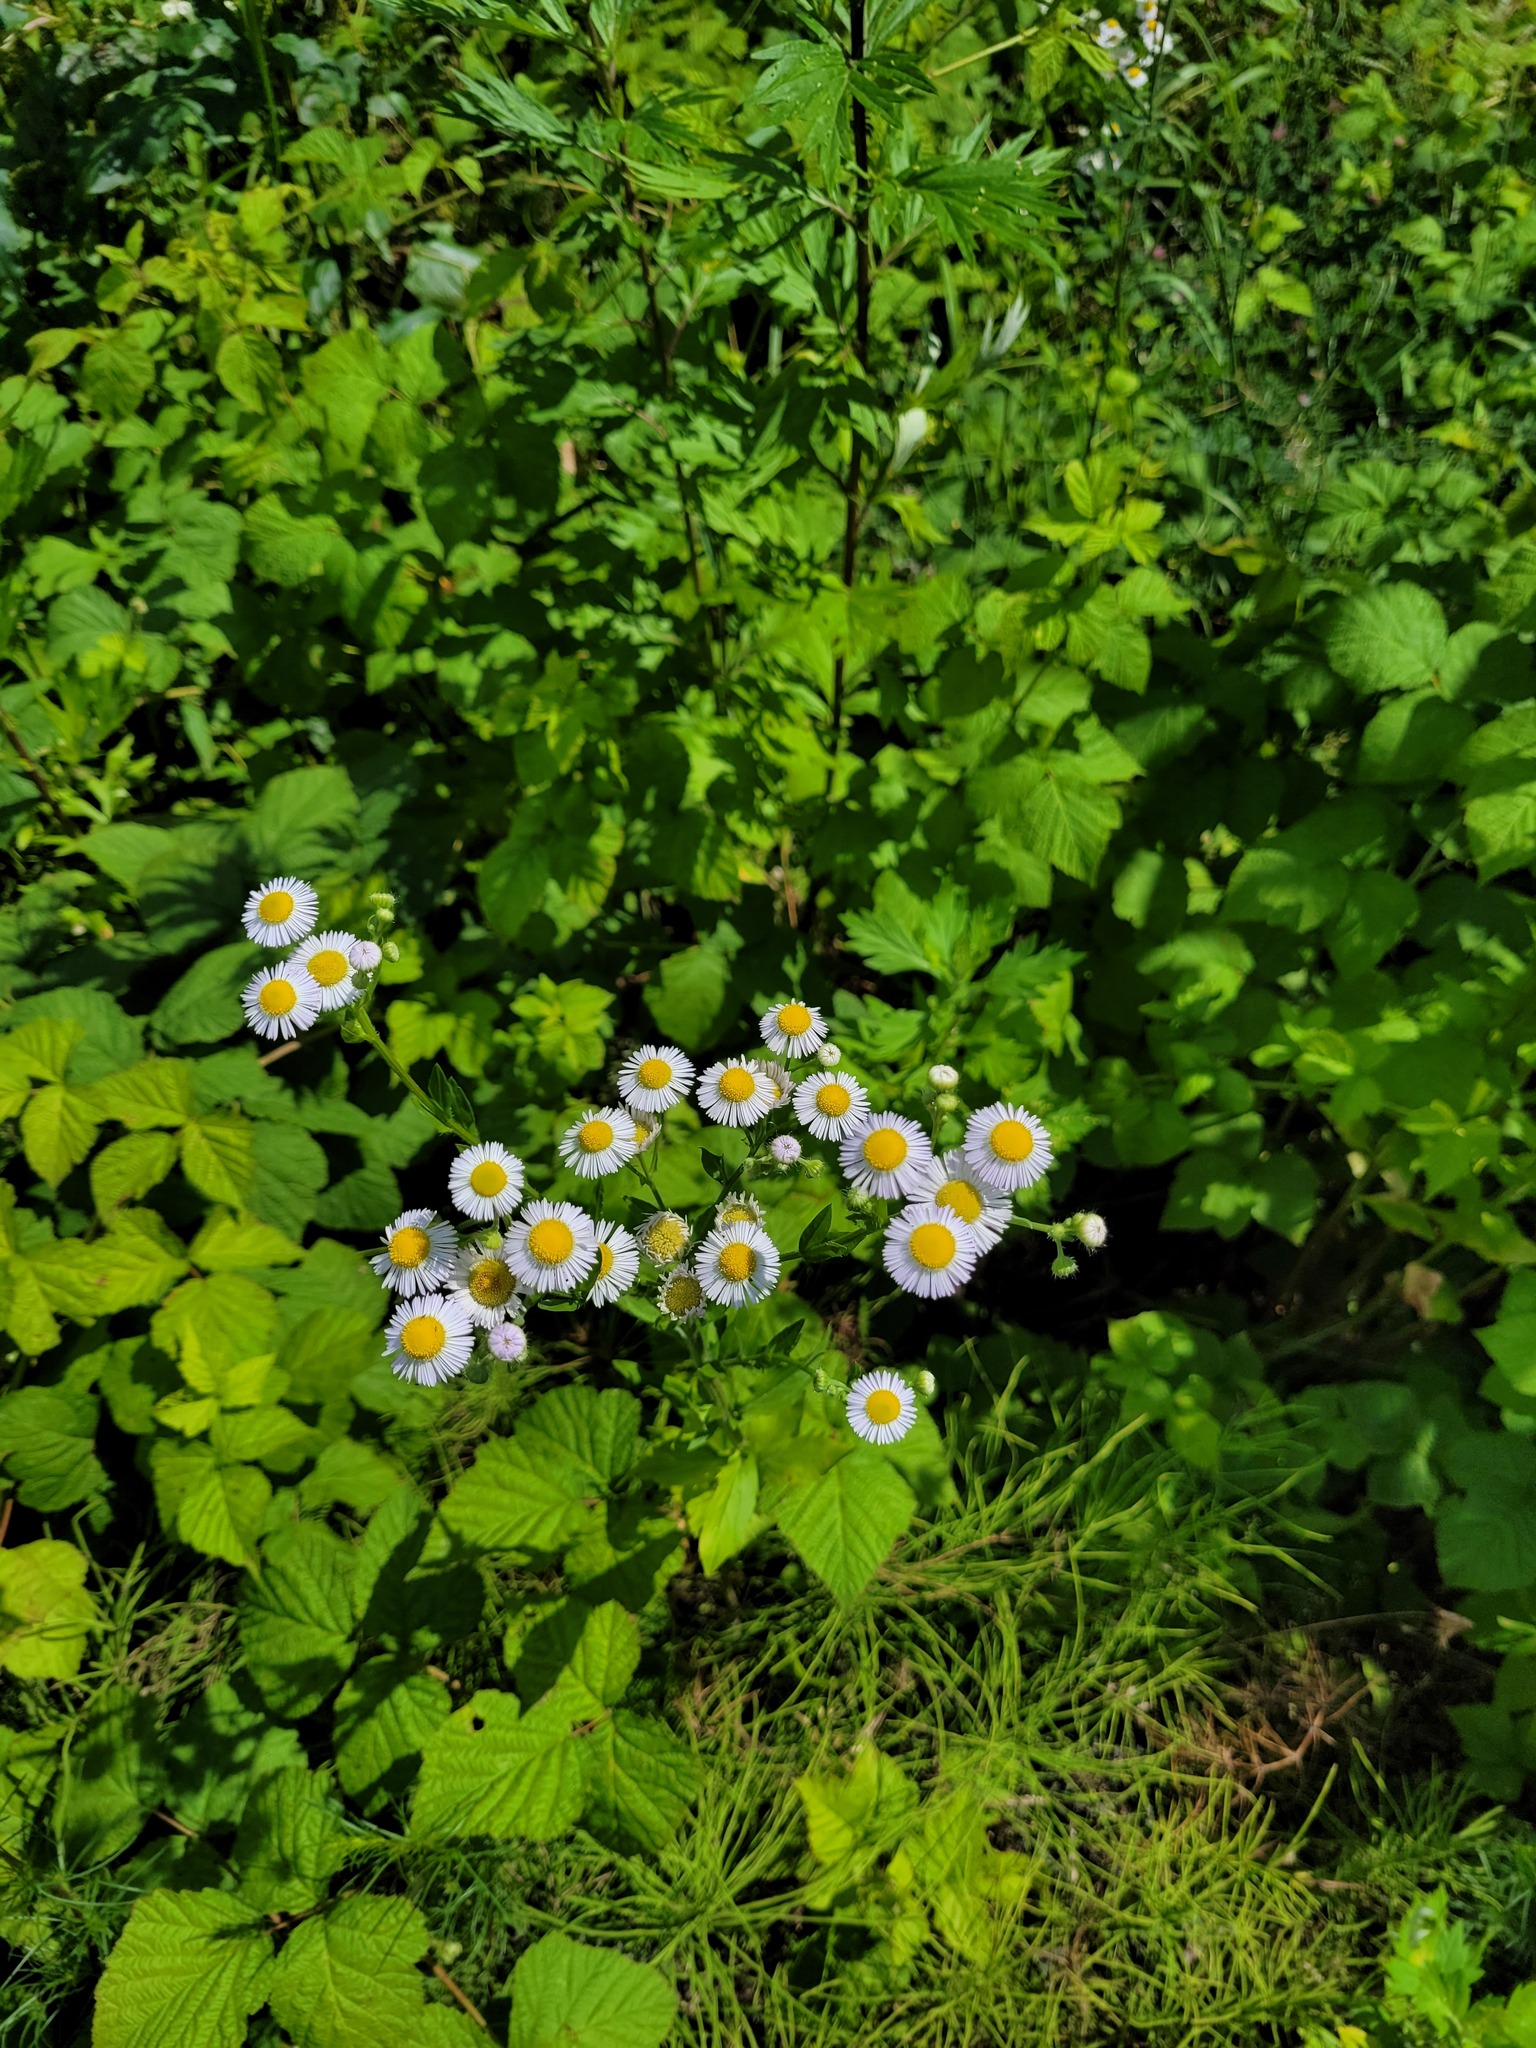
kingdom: Plantae
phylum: Tracheophyta
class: Magnoliopsida
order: Asterales
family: Asteraceae
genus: Erigeron
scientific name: Erigeron annuus
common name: Tall fleabane
